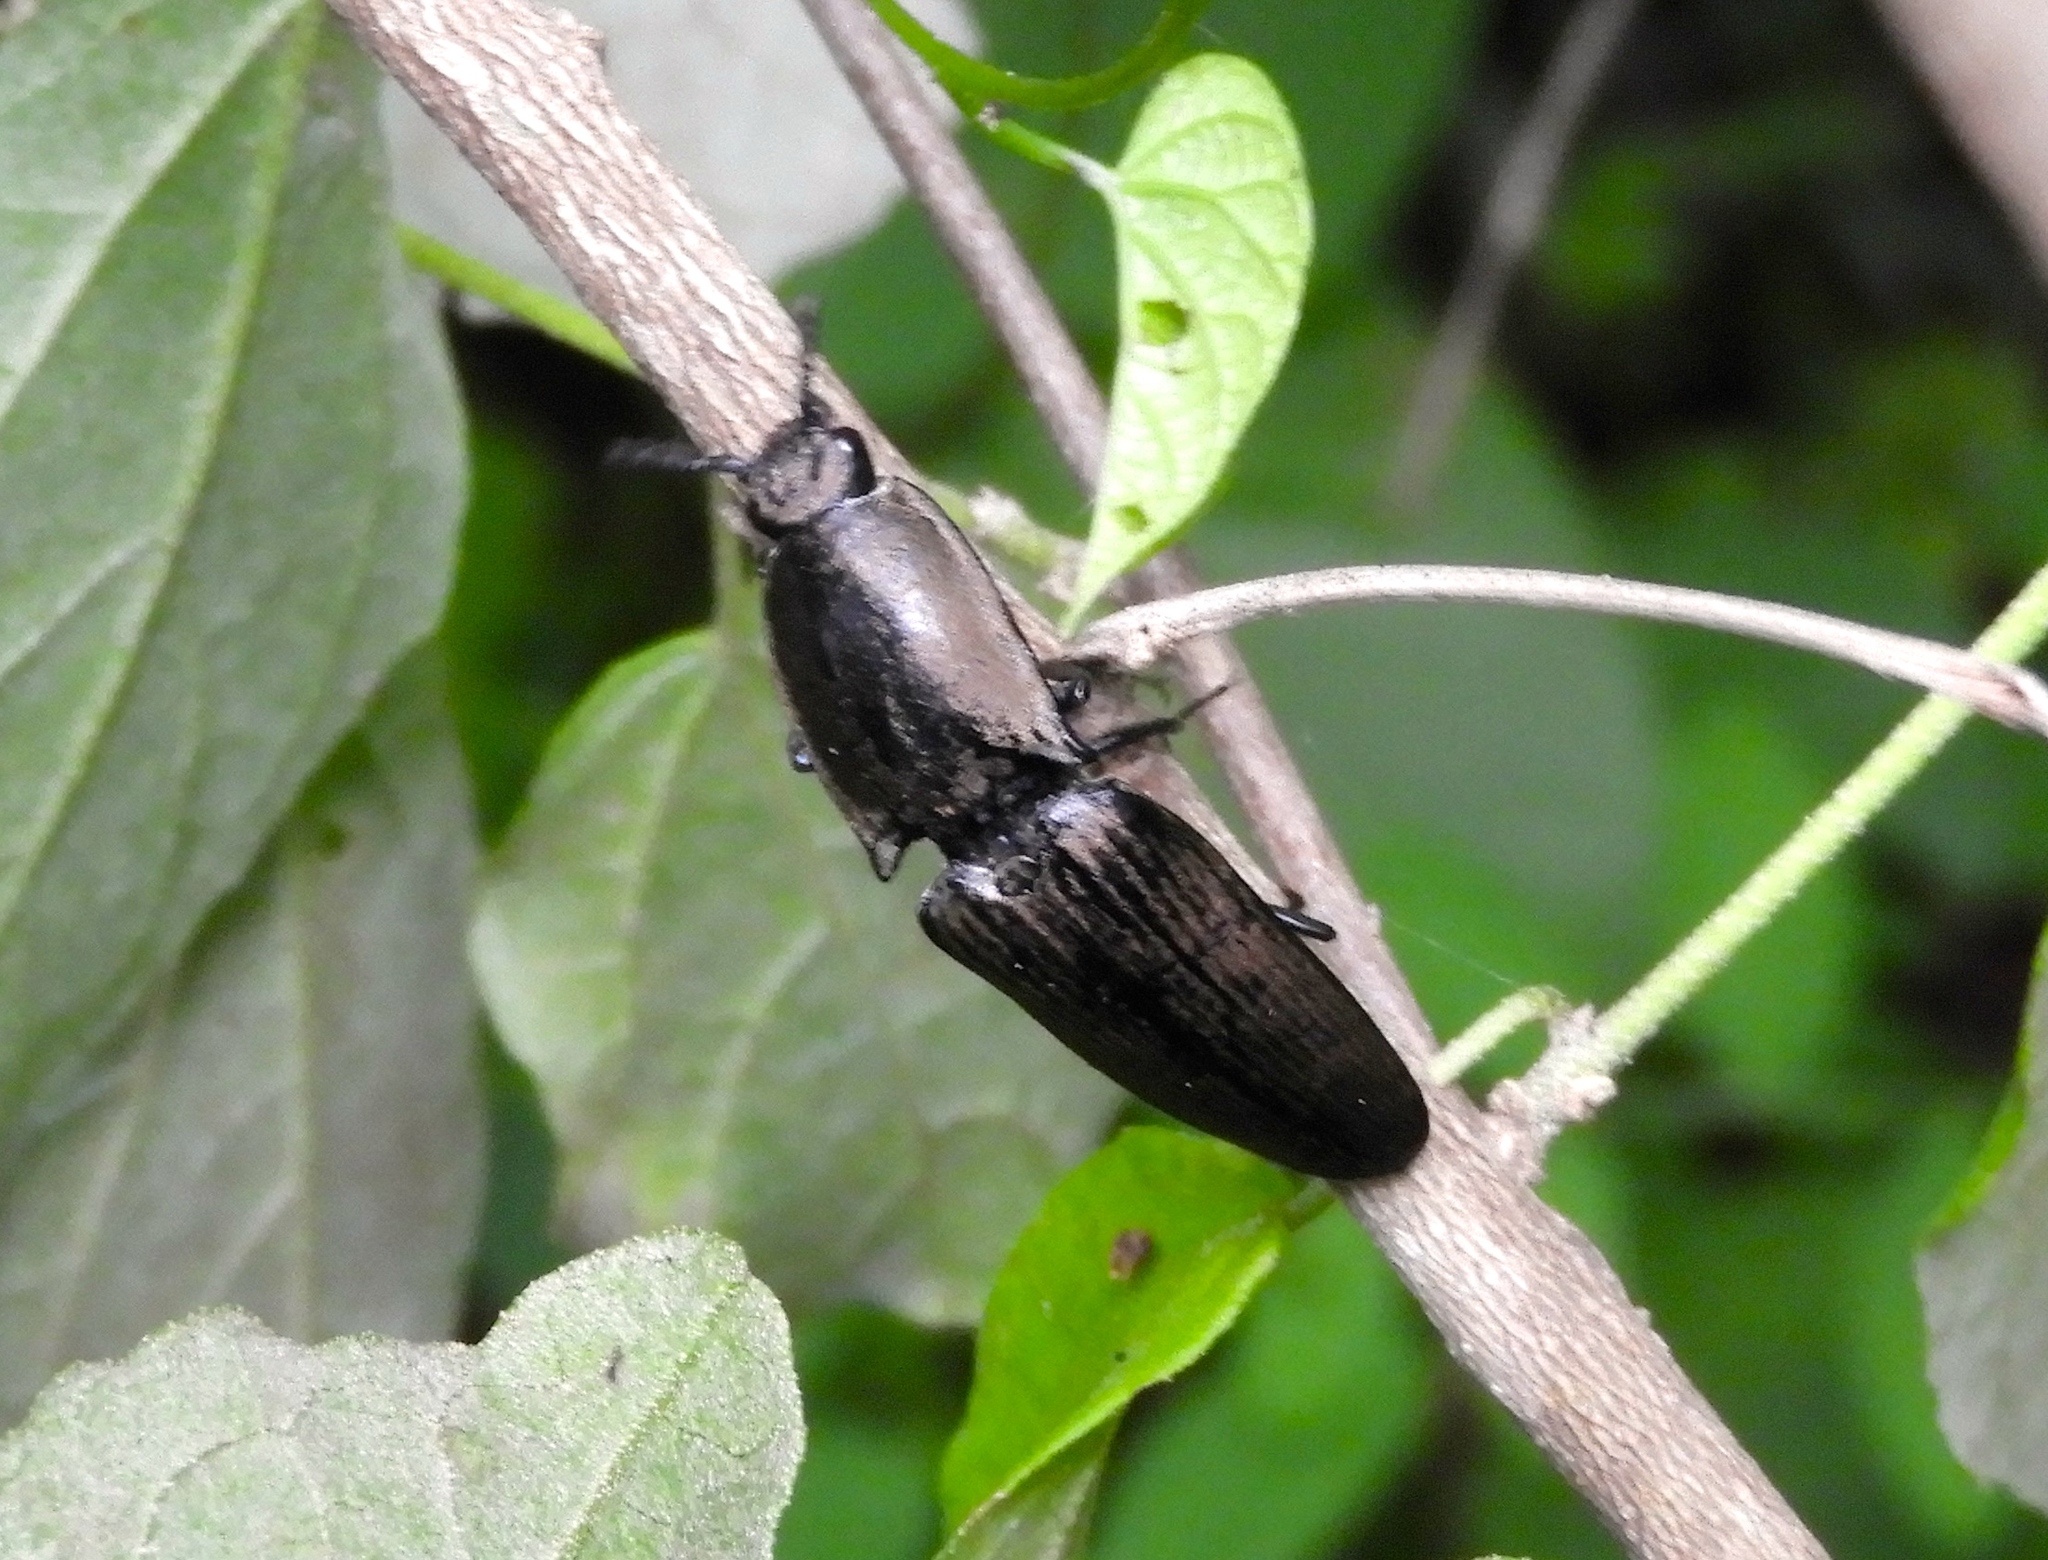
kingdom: Animalia
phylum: Arthropoda
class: Insecta
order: Coleoptera
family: Elateridae
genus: Chalcolepidius
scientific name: Chalcolepidius
